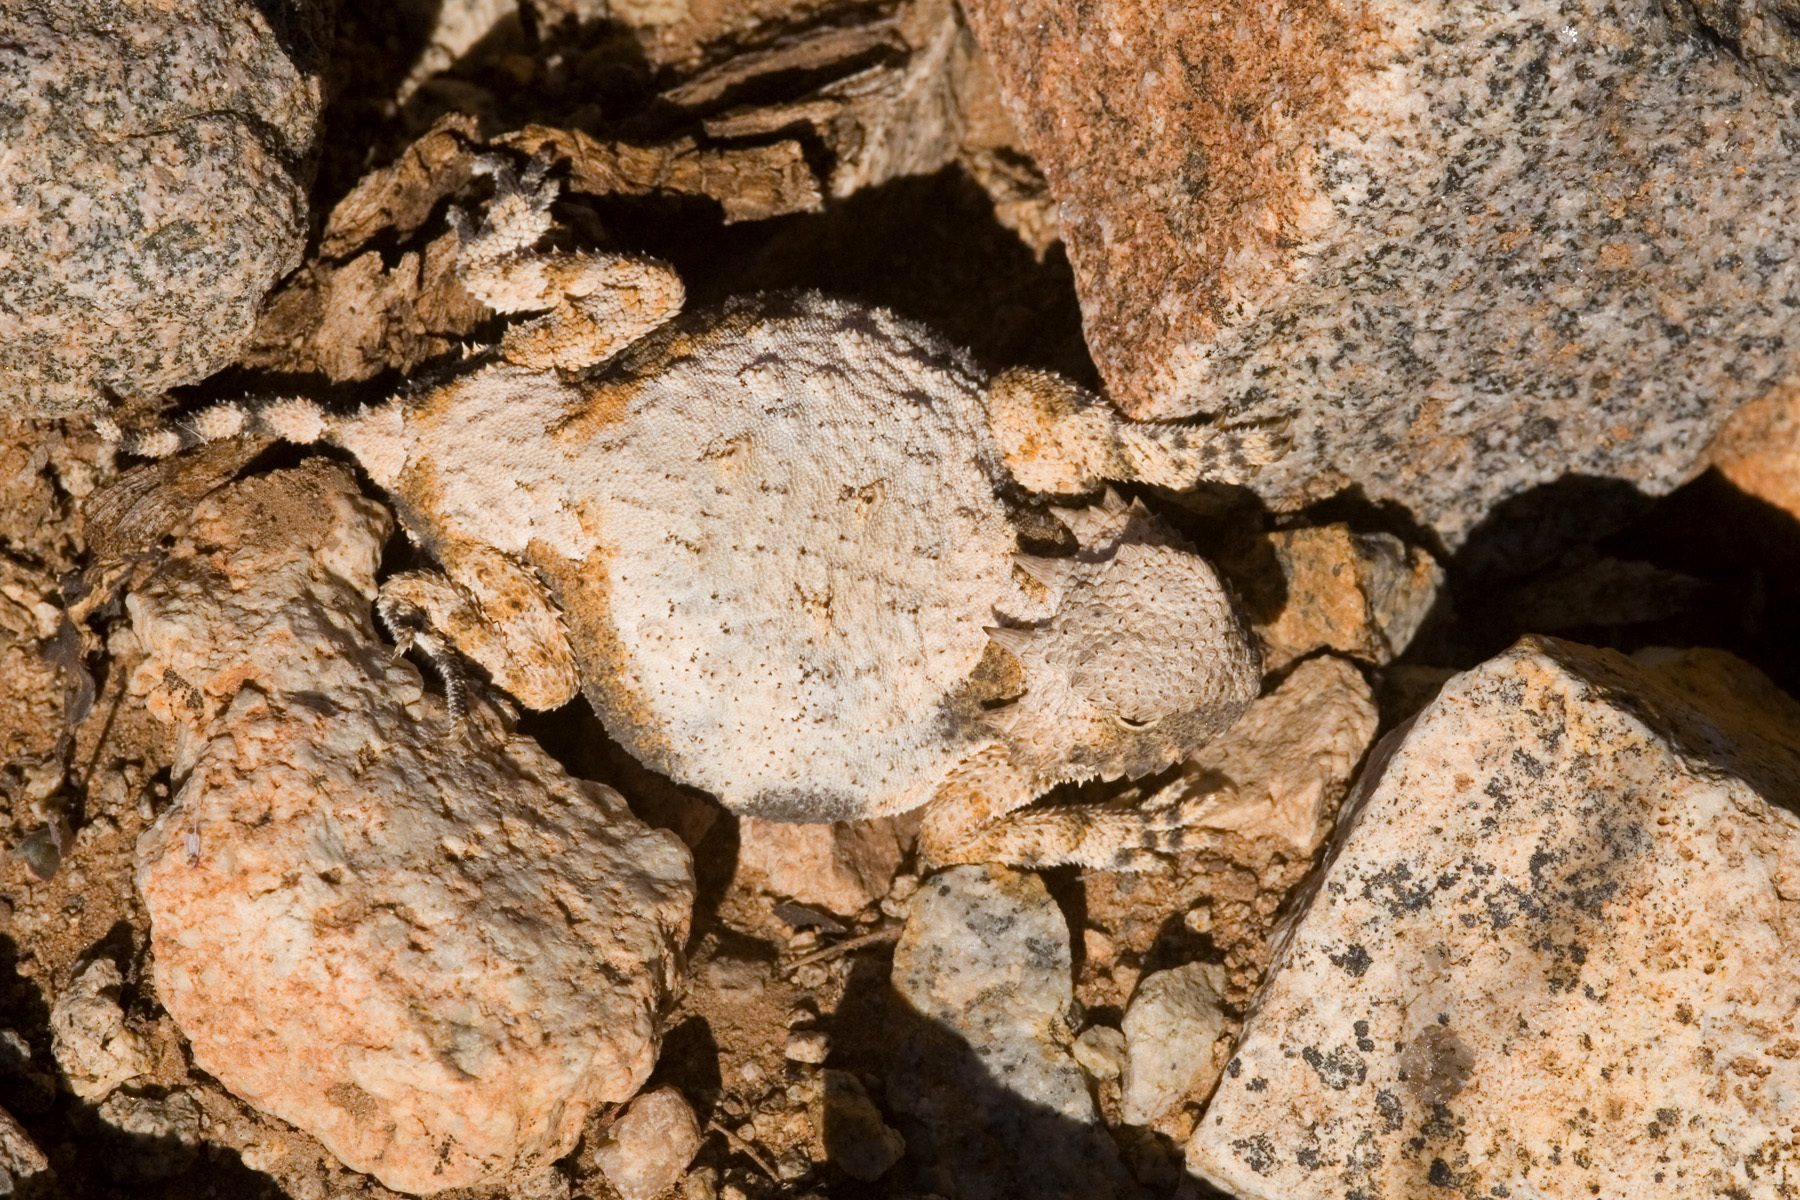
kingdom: Animalia
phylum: Chordata
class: Squamata
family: Phrynosomatidae
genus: Phrynosoma
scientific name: Phrynosoma modestum
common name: Roundtail horned lizard
